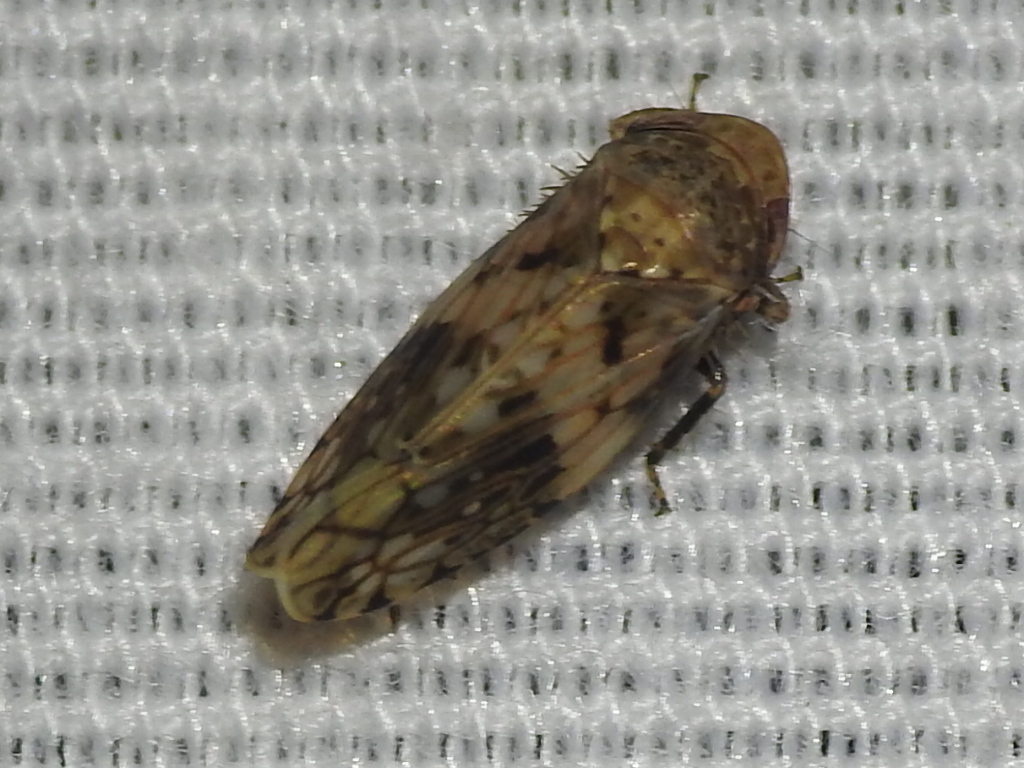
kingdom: Animalia
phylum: Arthropoda
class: Insecta
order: Hemiptera
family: Cicadellidae
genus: Menosoma
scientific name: Menosoma cinctum
